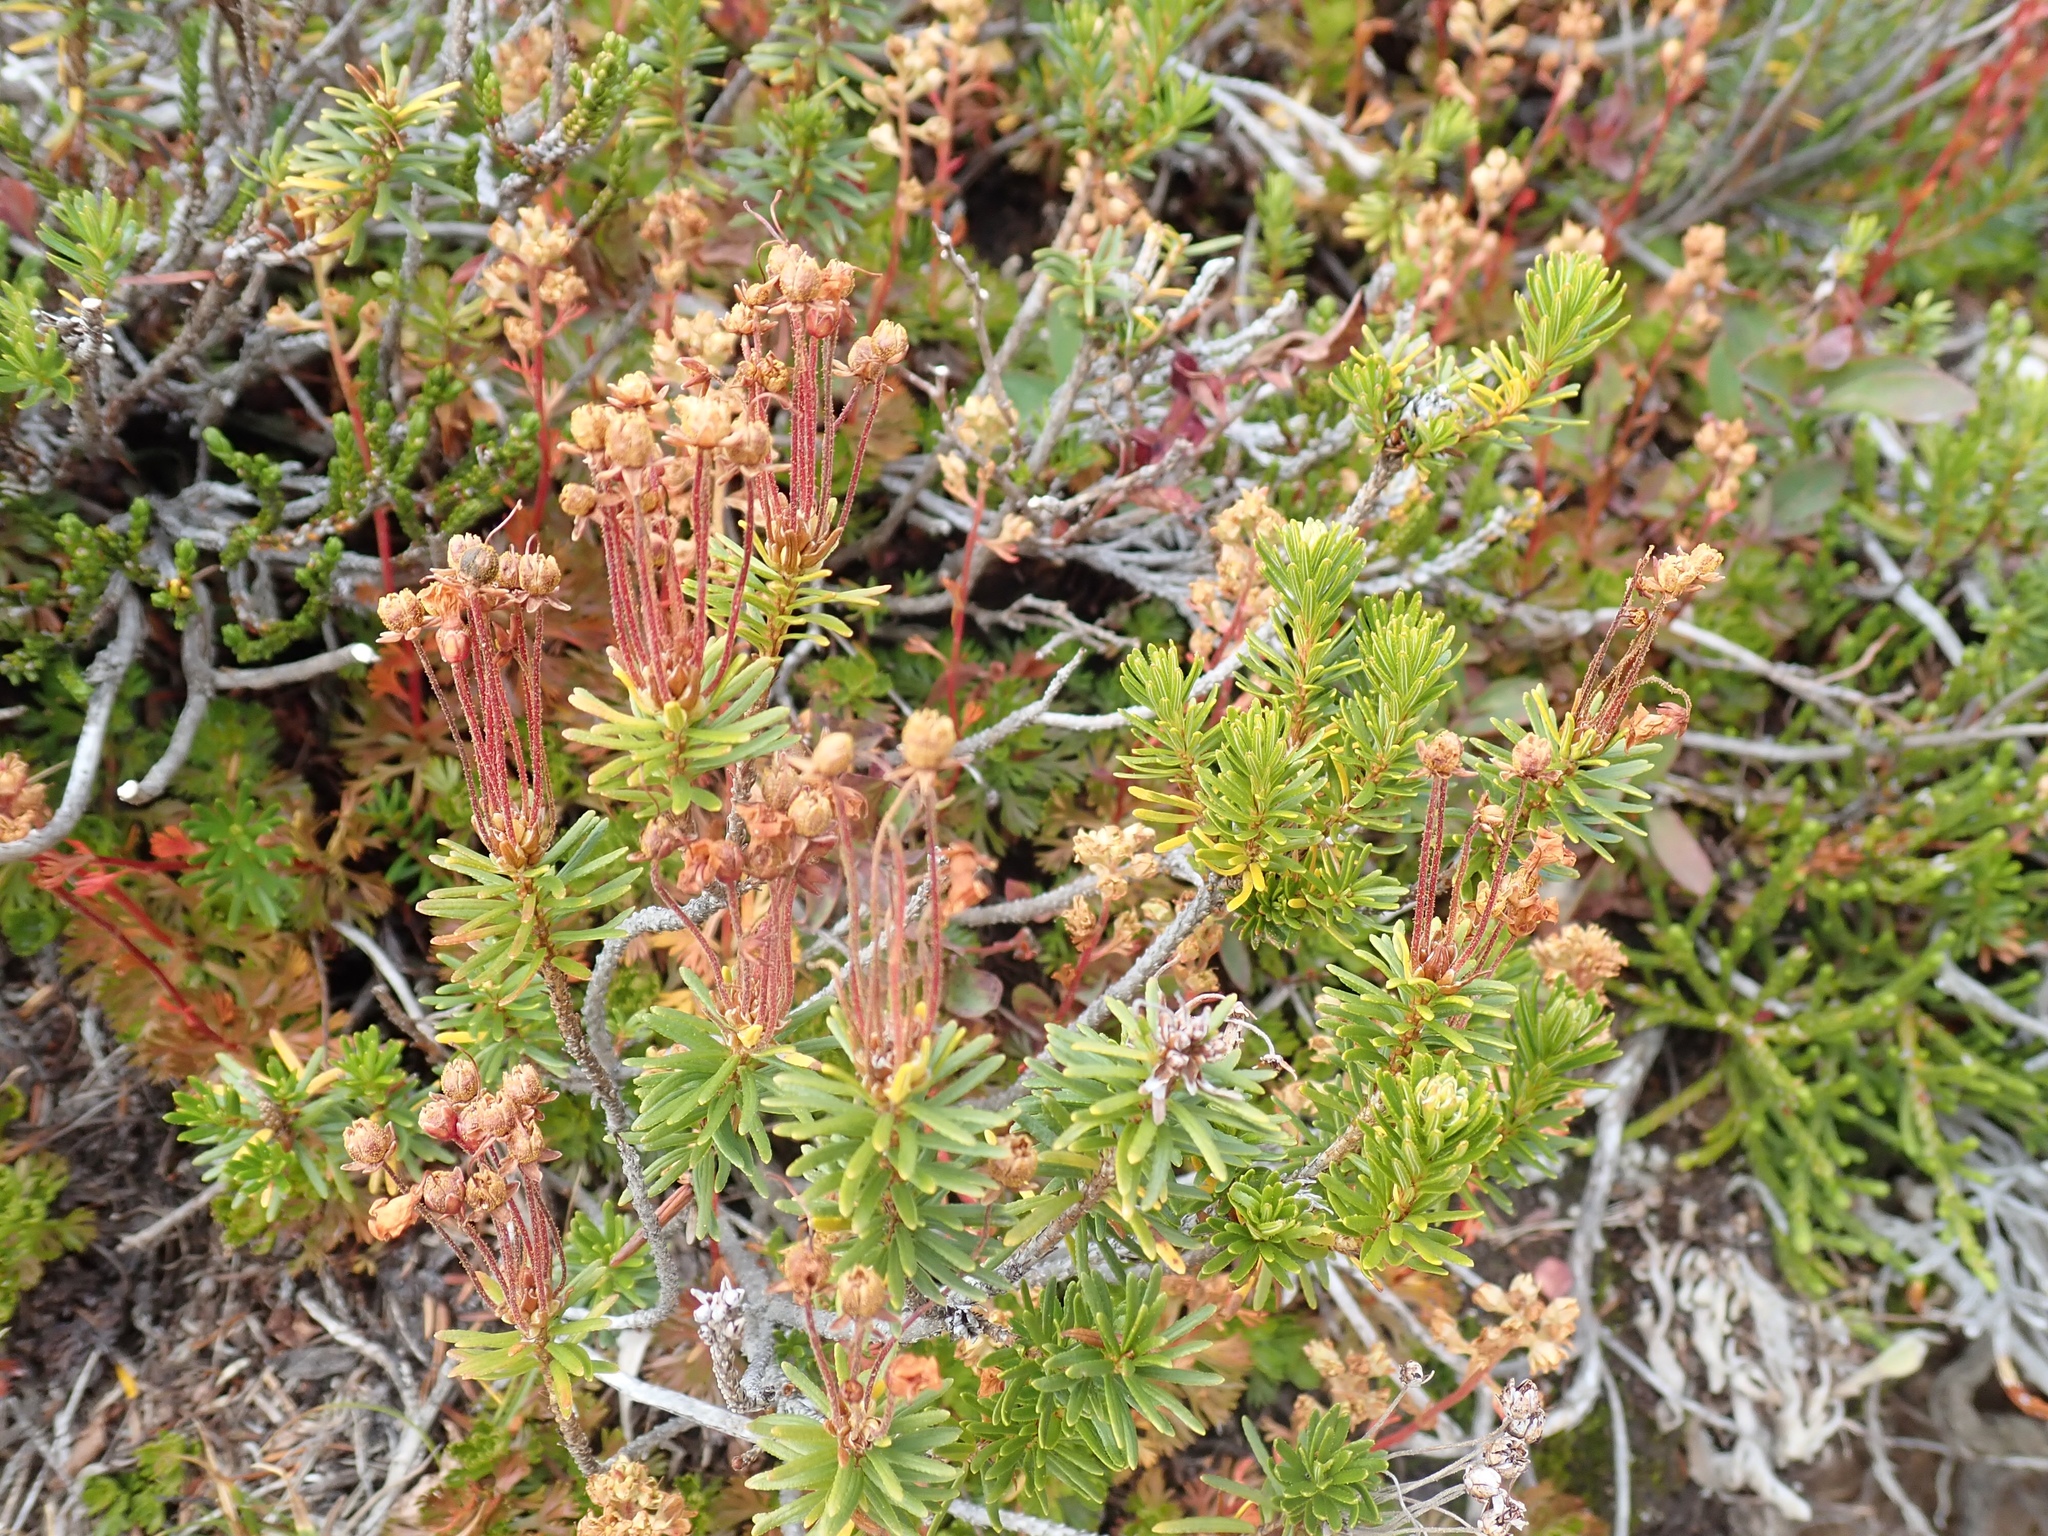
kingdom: Plantae
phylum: Tracheophyta
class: Magnoliopsida
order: Ericales
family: Ericaceae
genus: Phyllodoce
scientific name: Phyllodoce empetriformis
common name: Pink mountain heather
